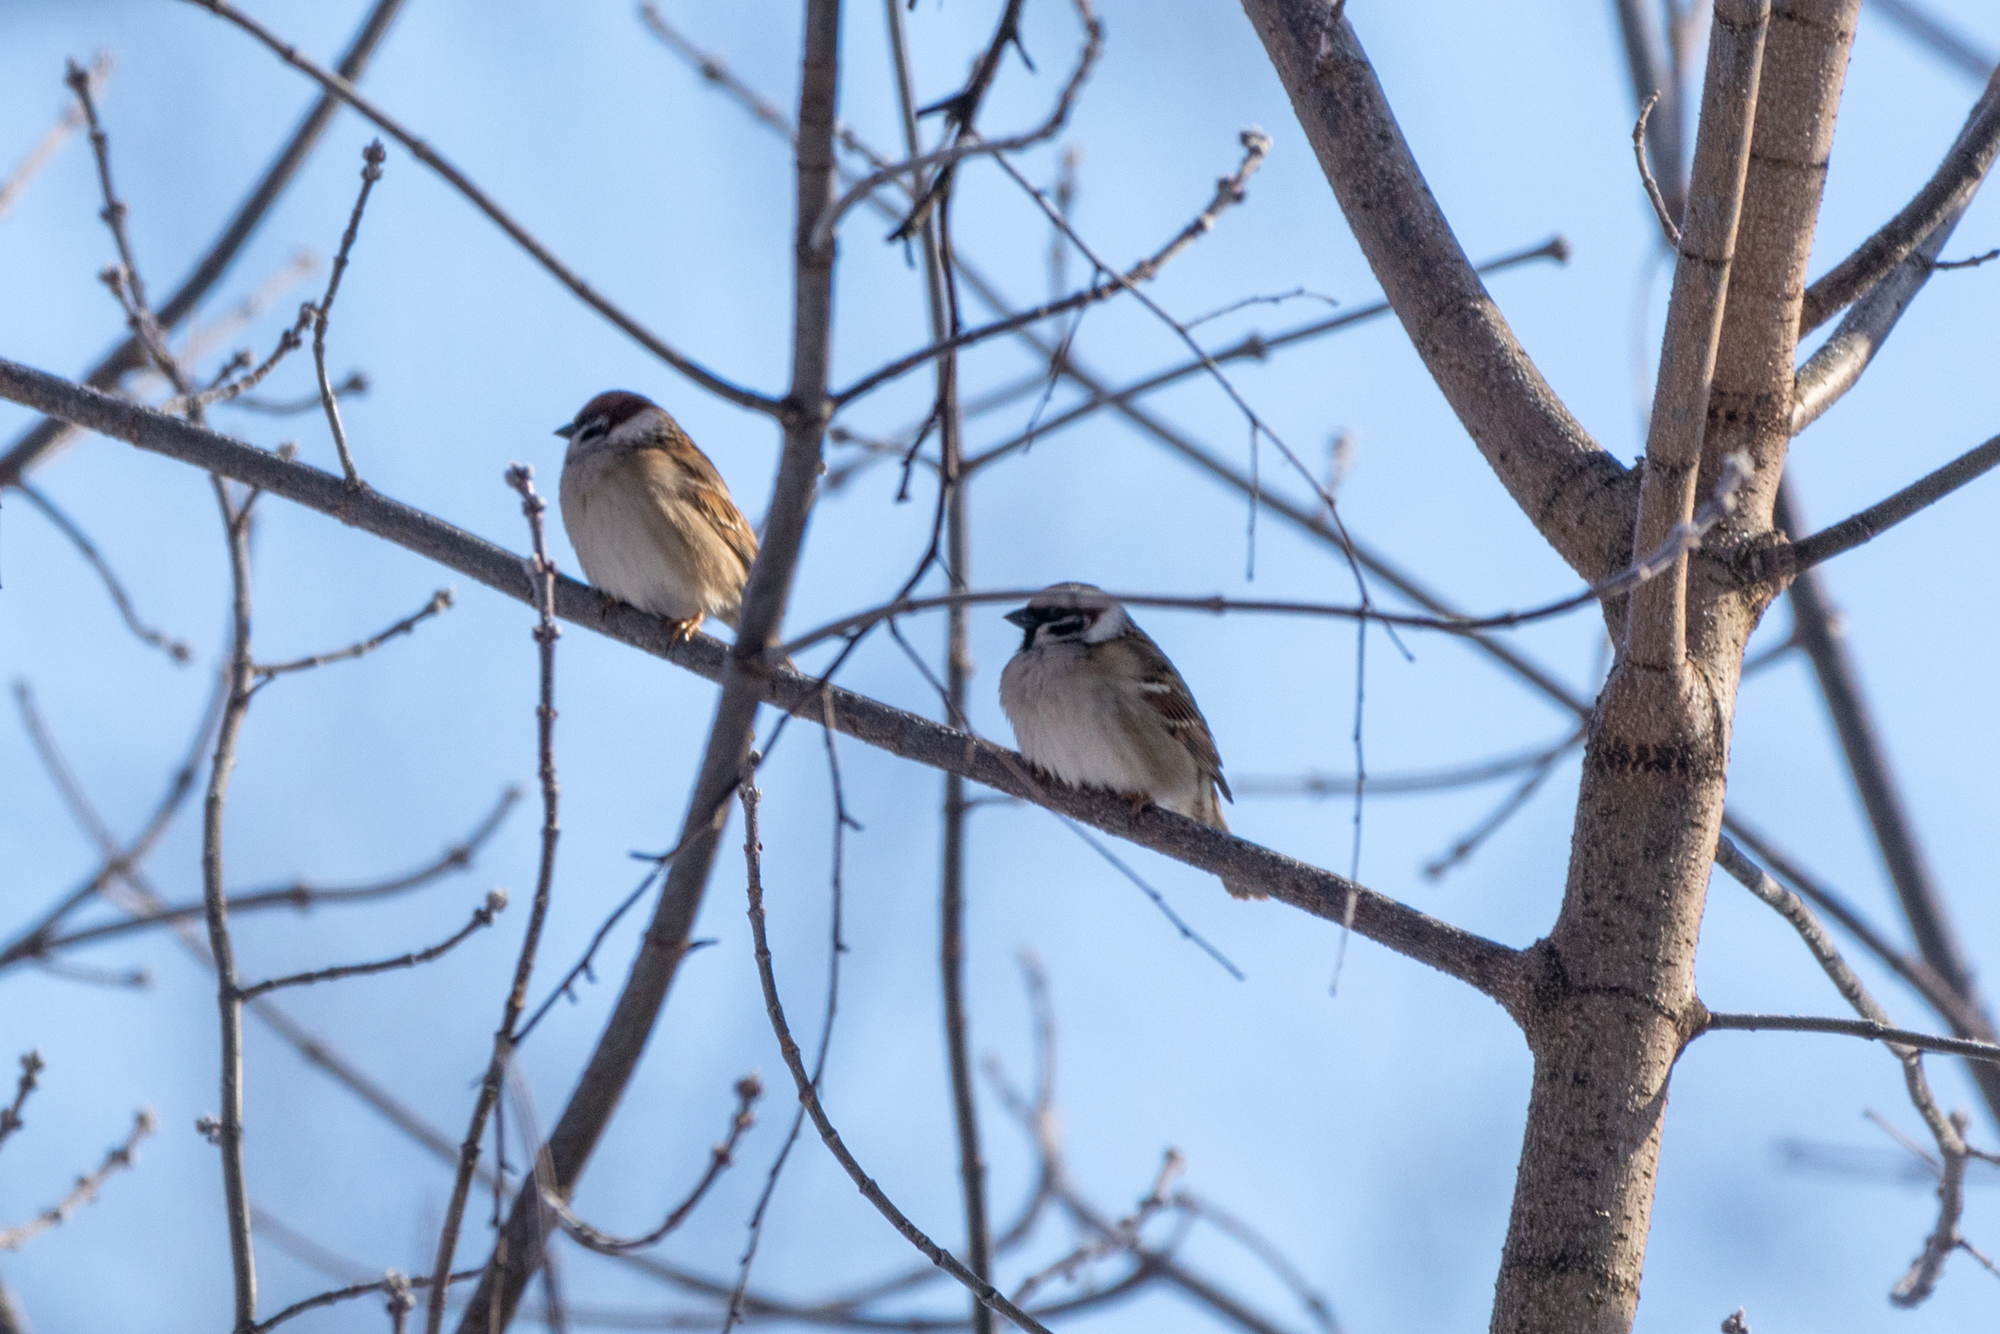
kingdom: Animalia
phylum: Chordata
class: Aves
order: Passeriformes
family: Passeridae
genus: Passer
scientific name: Passer montanus
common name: Eurasian tree sparrow
